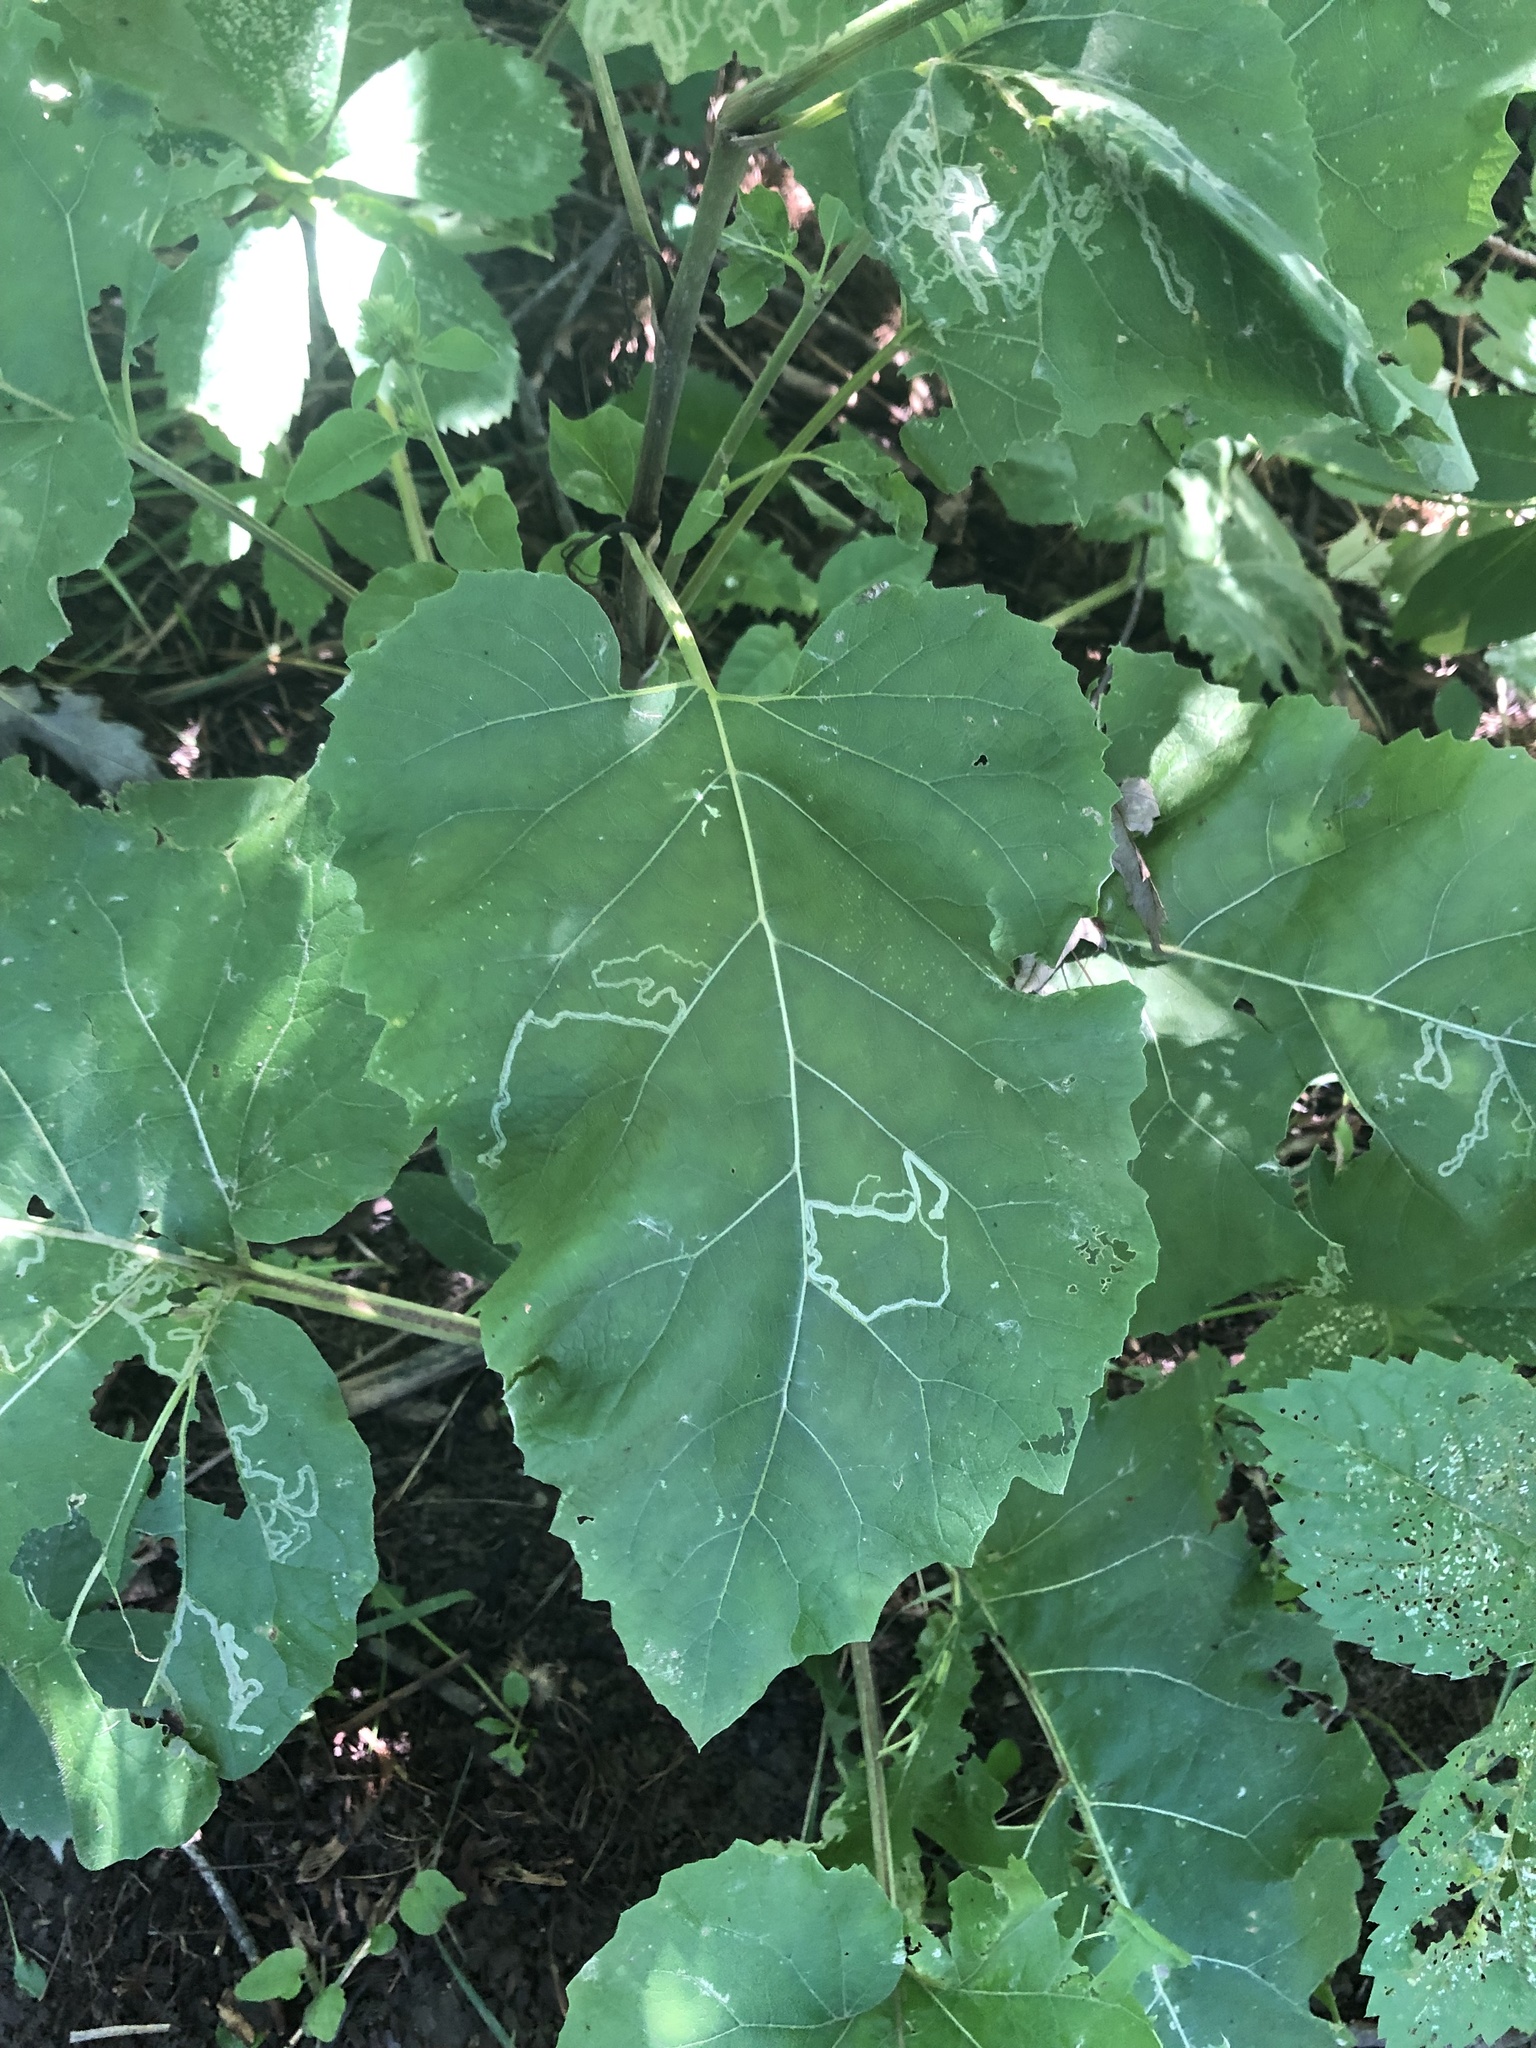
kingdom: Animalia
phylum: Arthropoda
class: Insecta
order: Diptera
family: Agromyzidae
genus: Liriomyza
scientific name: Liriomyza arctii
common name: Burdock leafminer
